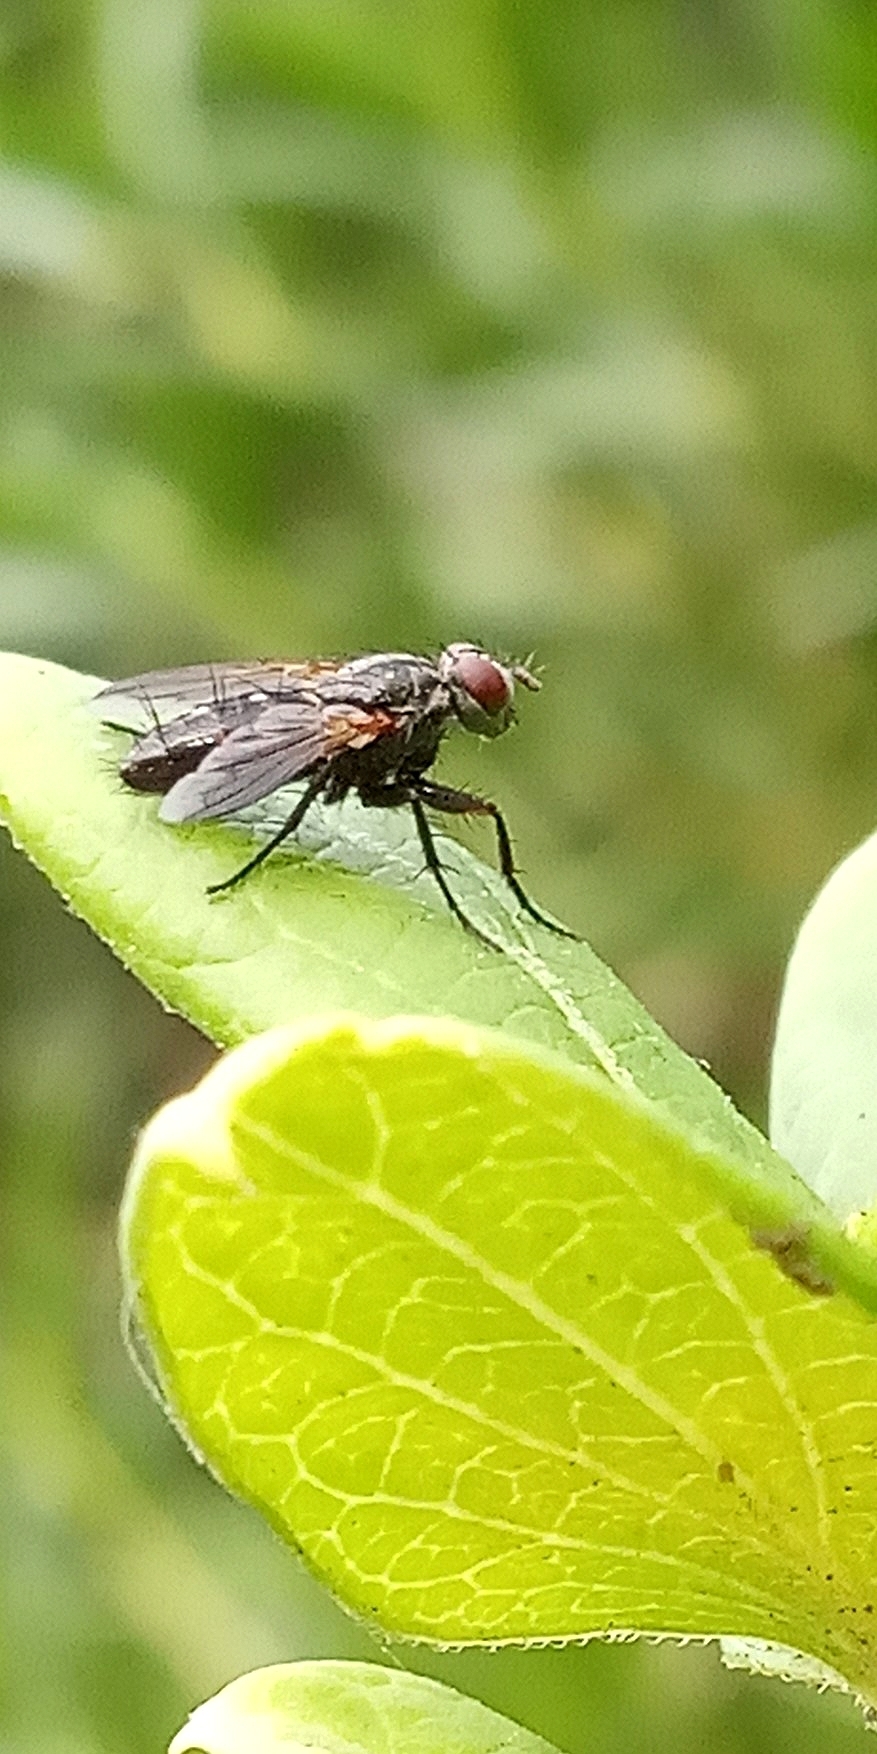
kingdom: Animalia
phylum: Arthropoda
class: Insecta
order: Diptera
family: Calliphoridae
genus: Stevenia
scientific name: Stevenia deceptoria
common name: Grizzled woodlouse-fly
